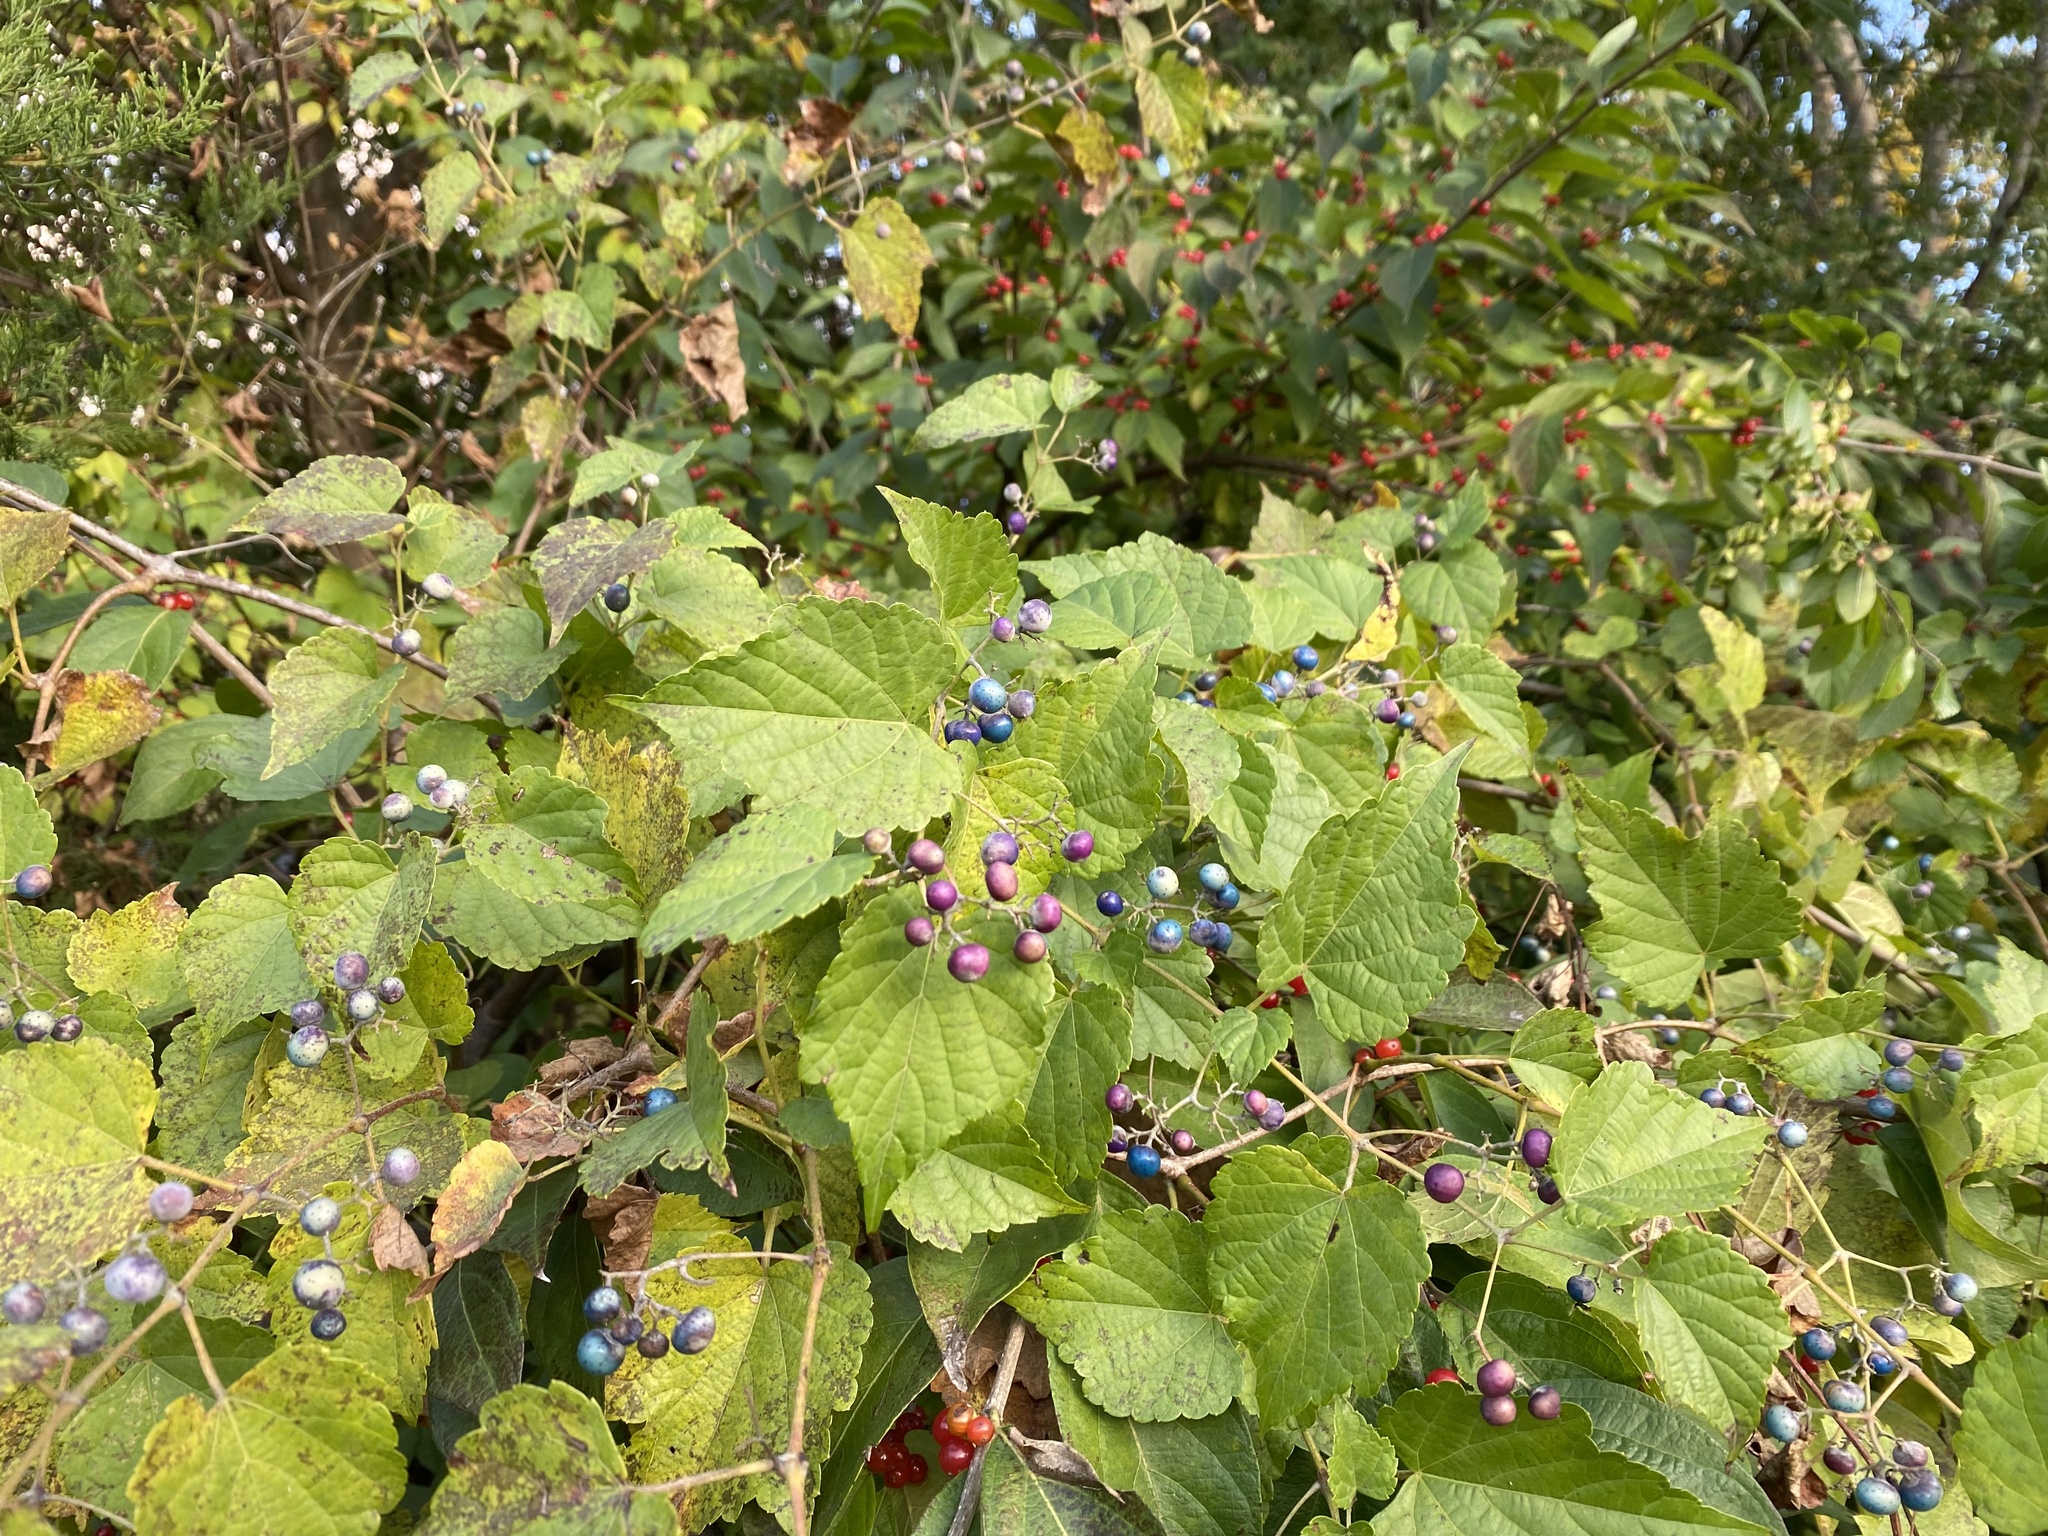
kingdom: Plantae
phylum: Tracheophyta
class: Magnoliopsida
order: Vitales
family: Vitaceae
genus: Ampelopsis
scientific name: Ampelopsis glandulosa
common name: Amur peppervine
